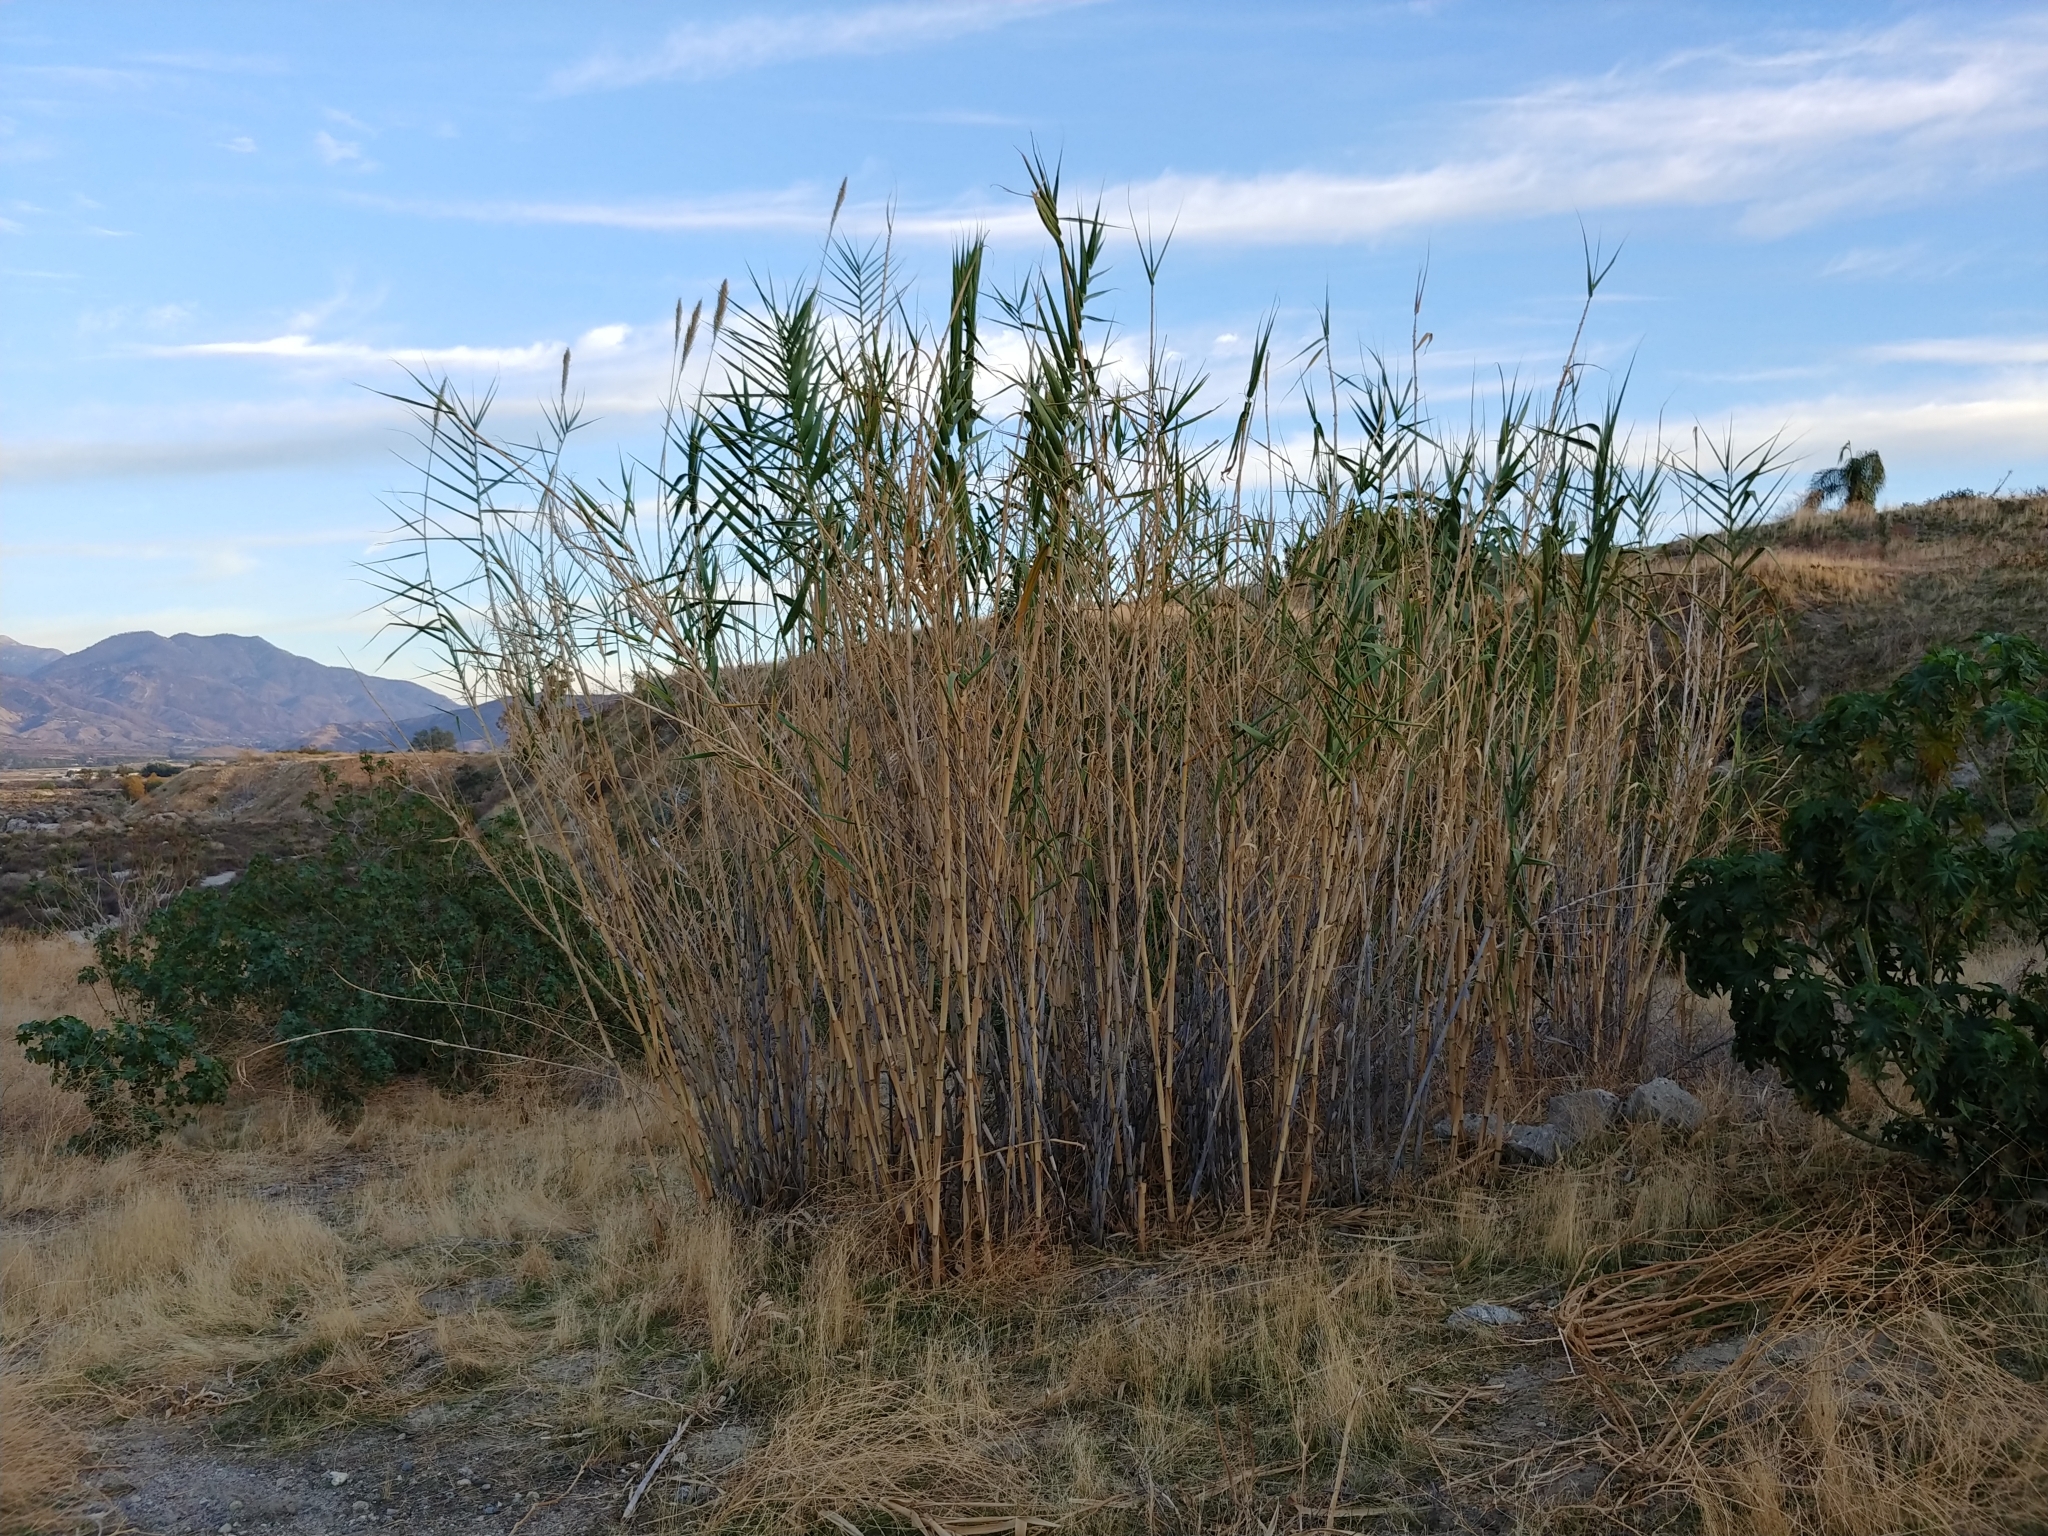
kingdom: Plantae
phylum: Tracheophyta
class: Liliopsida
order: Poales
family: Poaceae
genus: Arundo
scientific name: Arundo donax
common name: Giant reed
